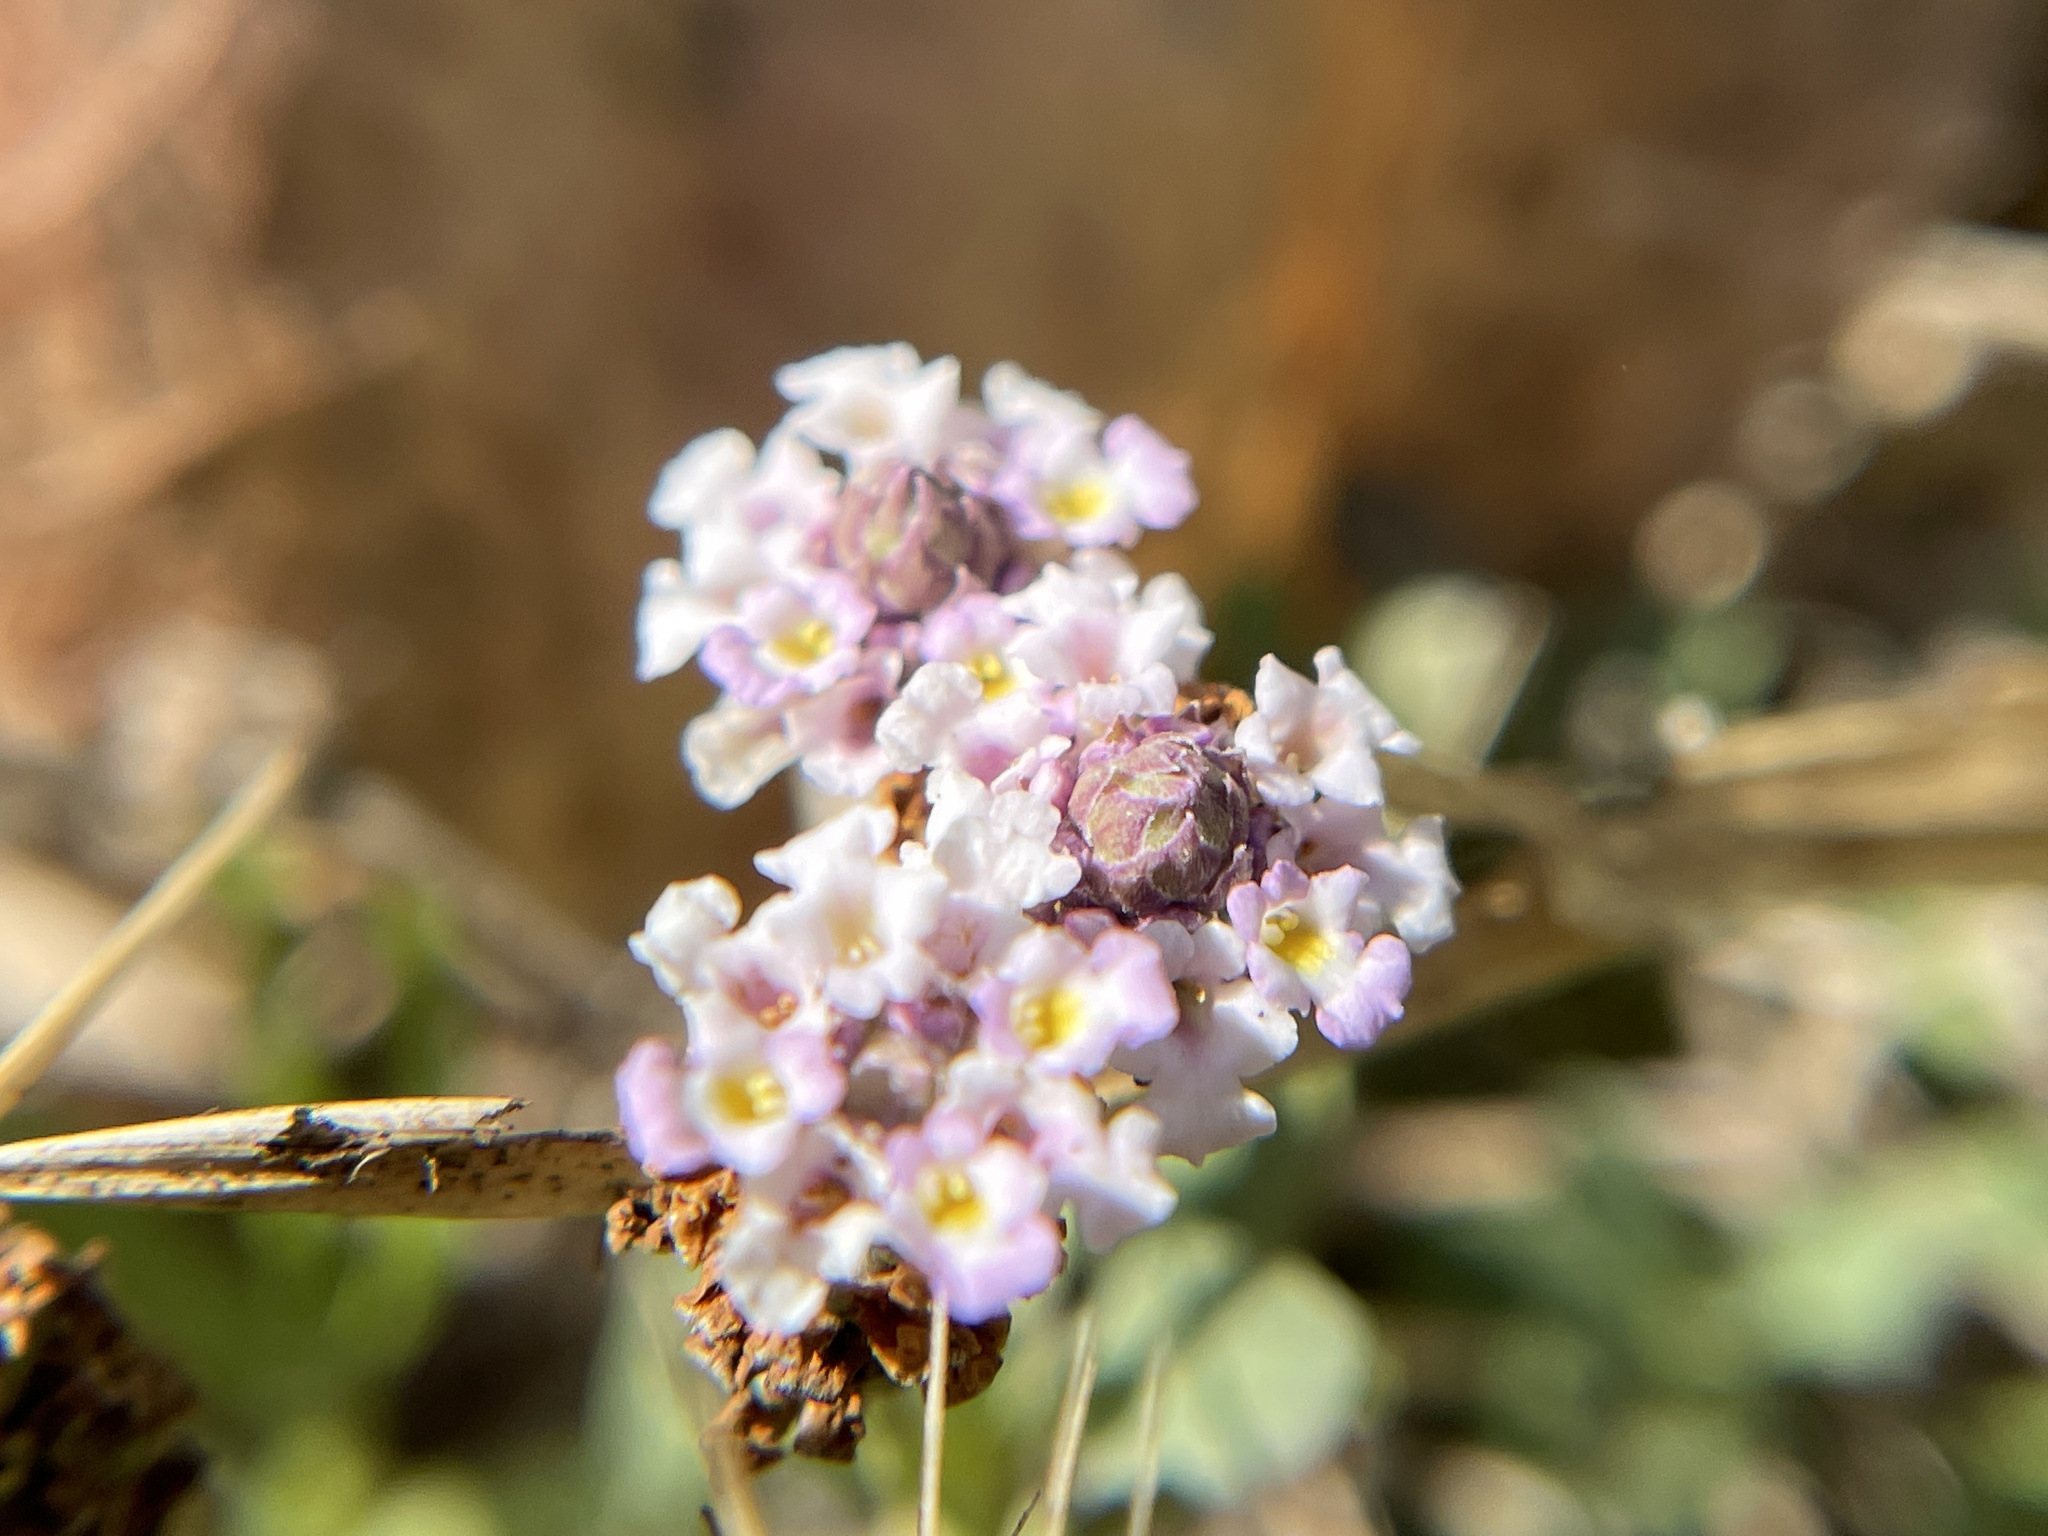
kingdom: Plantae
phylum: Tracheophyta
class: Magnoliopsida
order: Lamiales
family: Verbenaceae
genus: Phyla
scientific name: Phyla nodiflora
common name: Frogfruit
